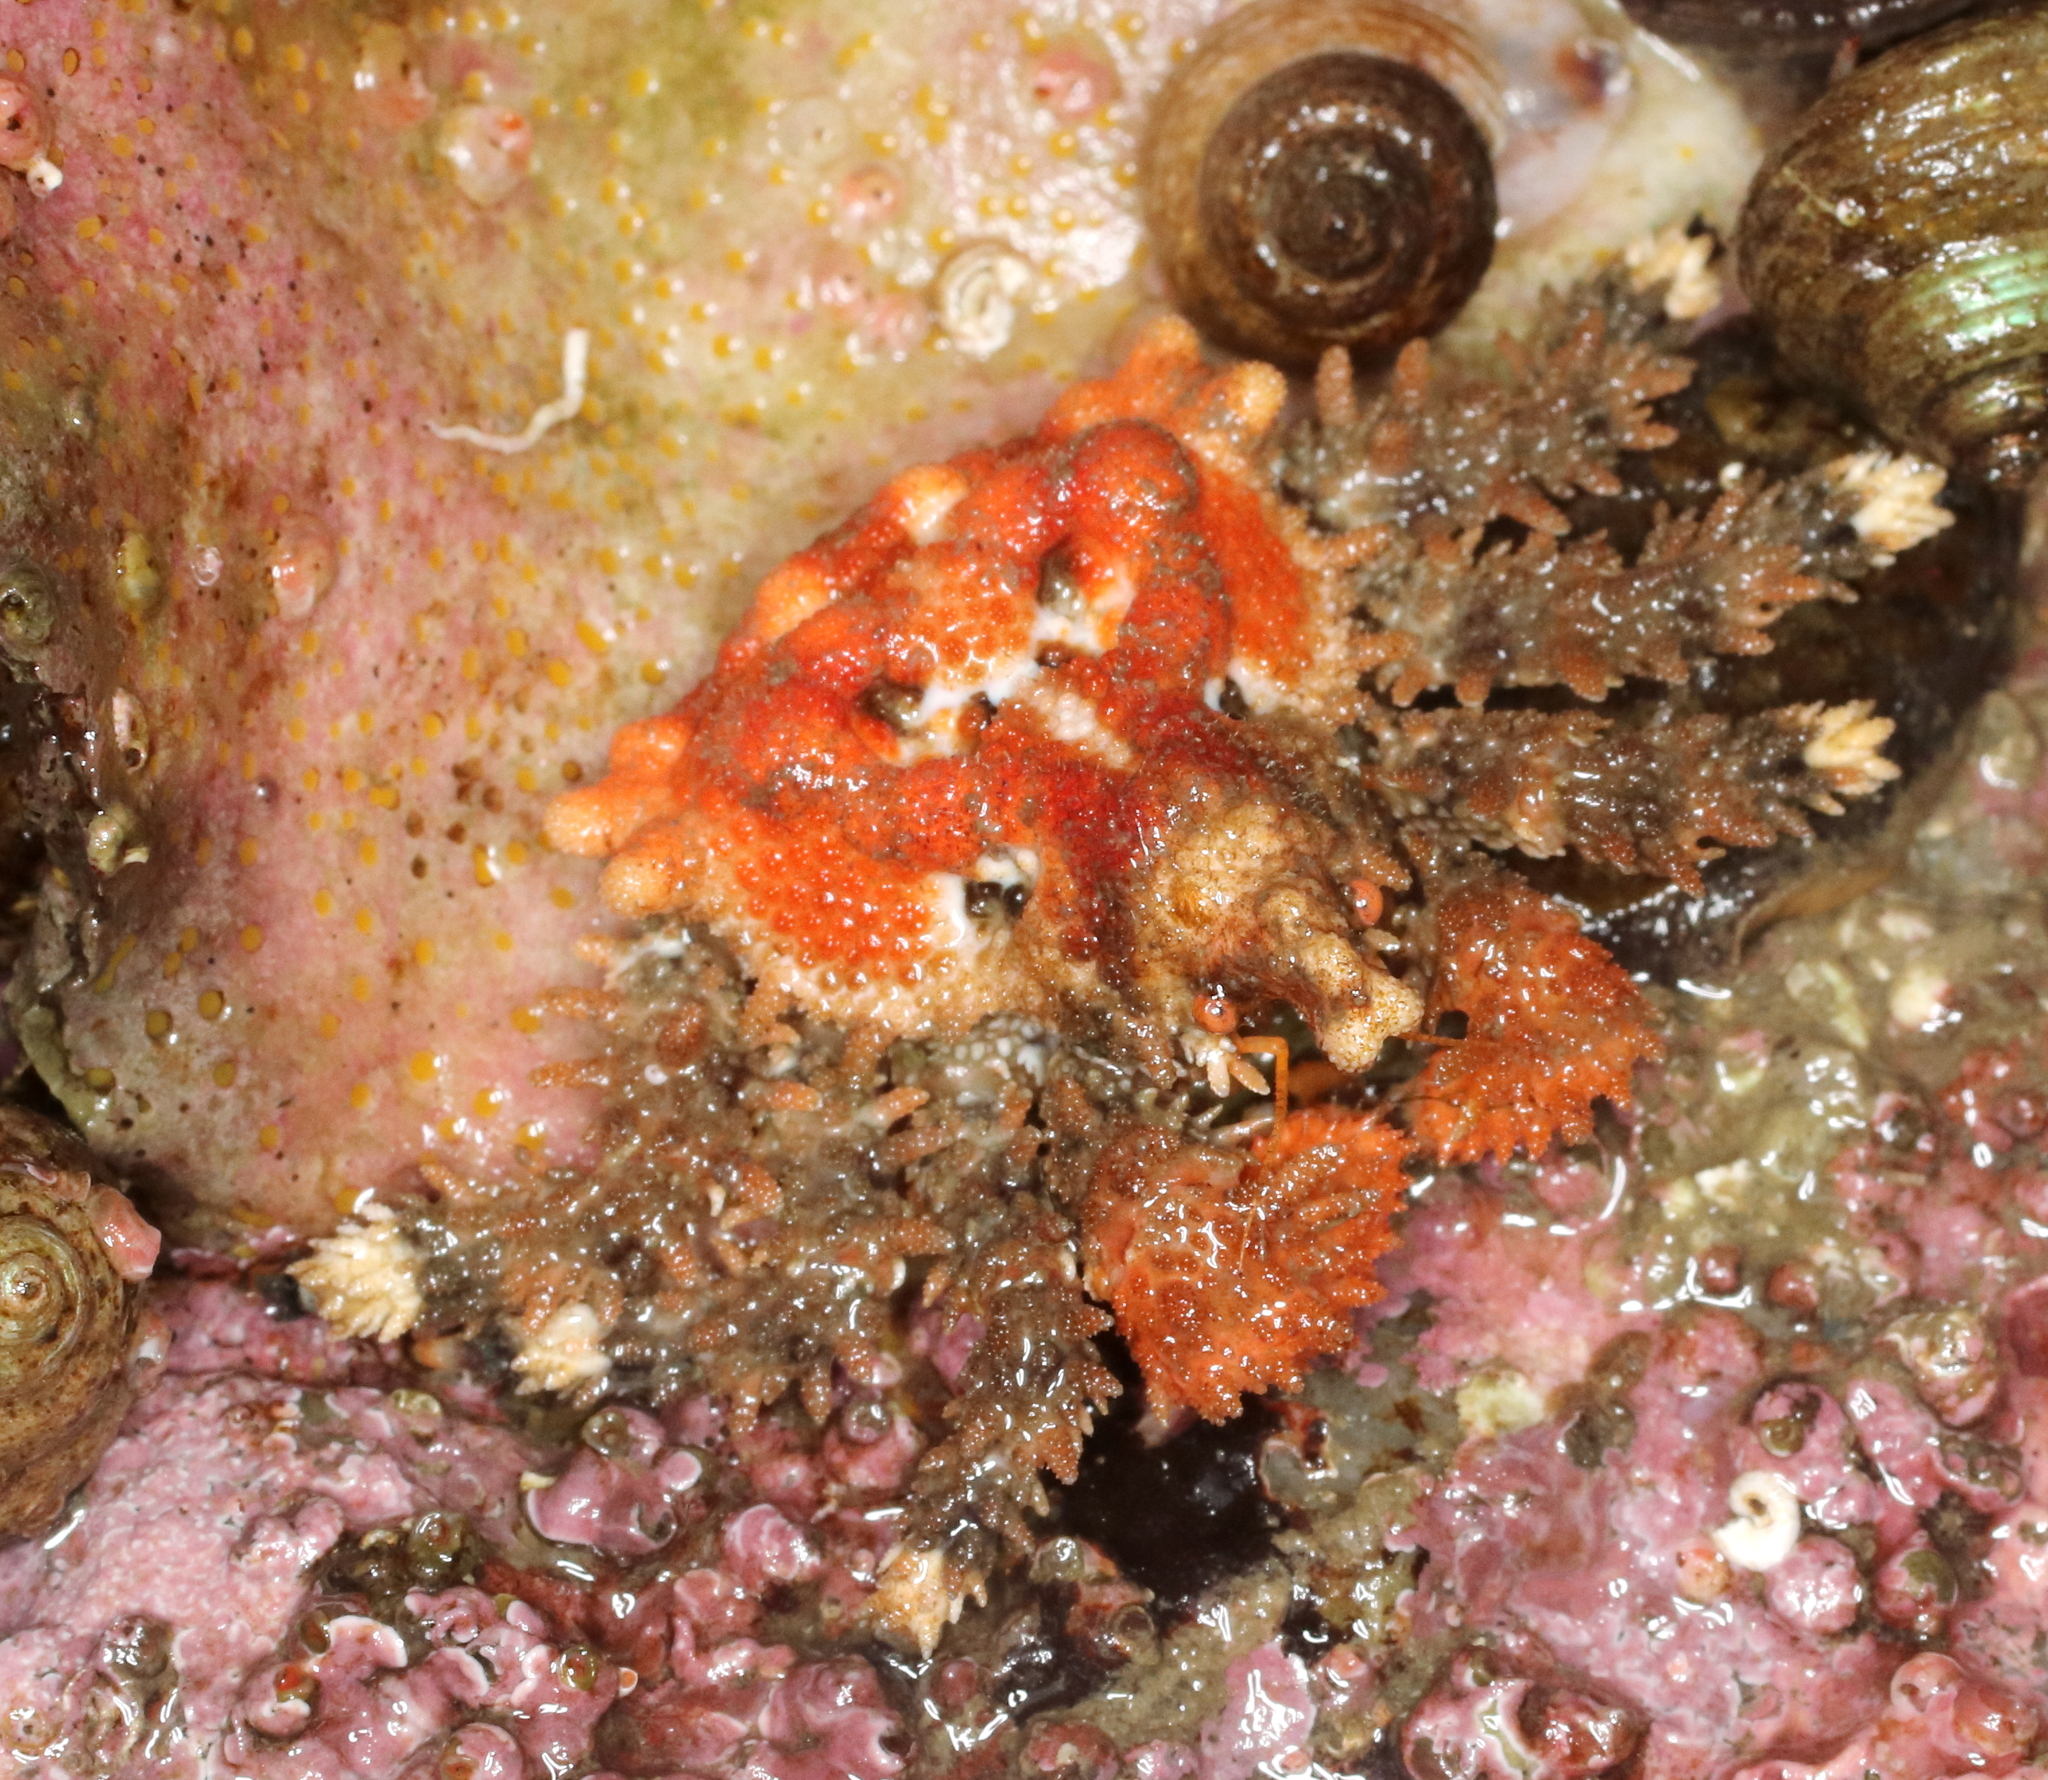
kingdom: Animalia
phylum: Arthropoda
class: Malacostraca
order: Decapoda
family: Lithodidae
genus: Phyllolithodes
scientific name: Phyllolithodes papillosus
